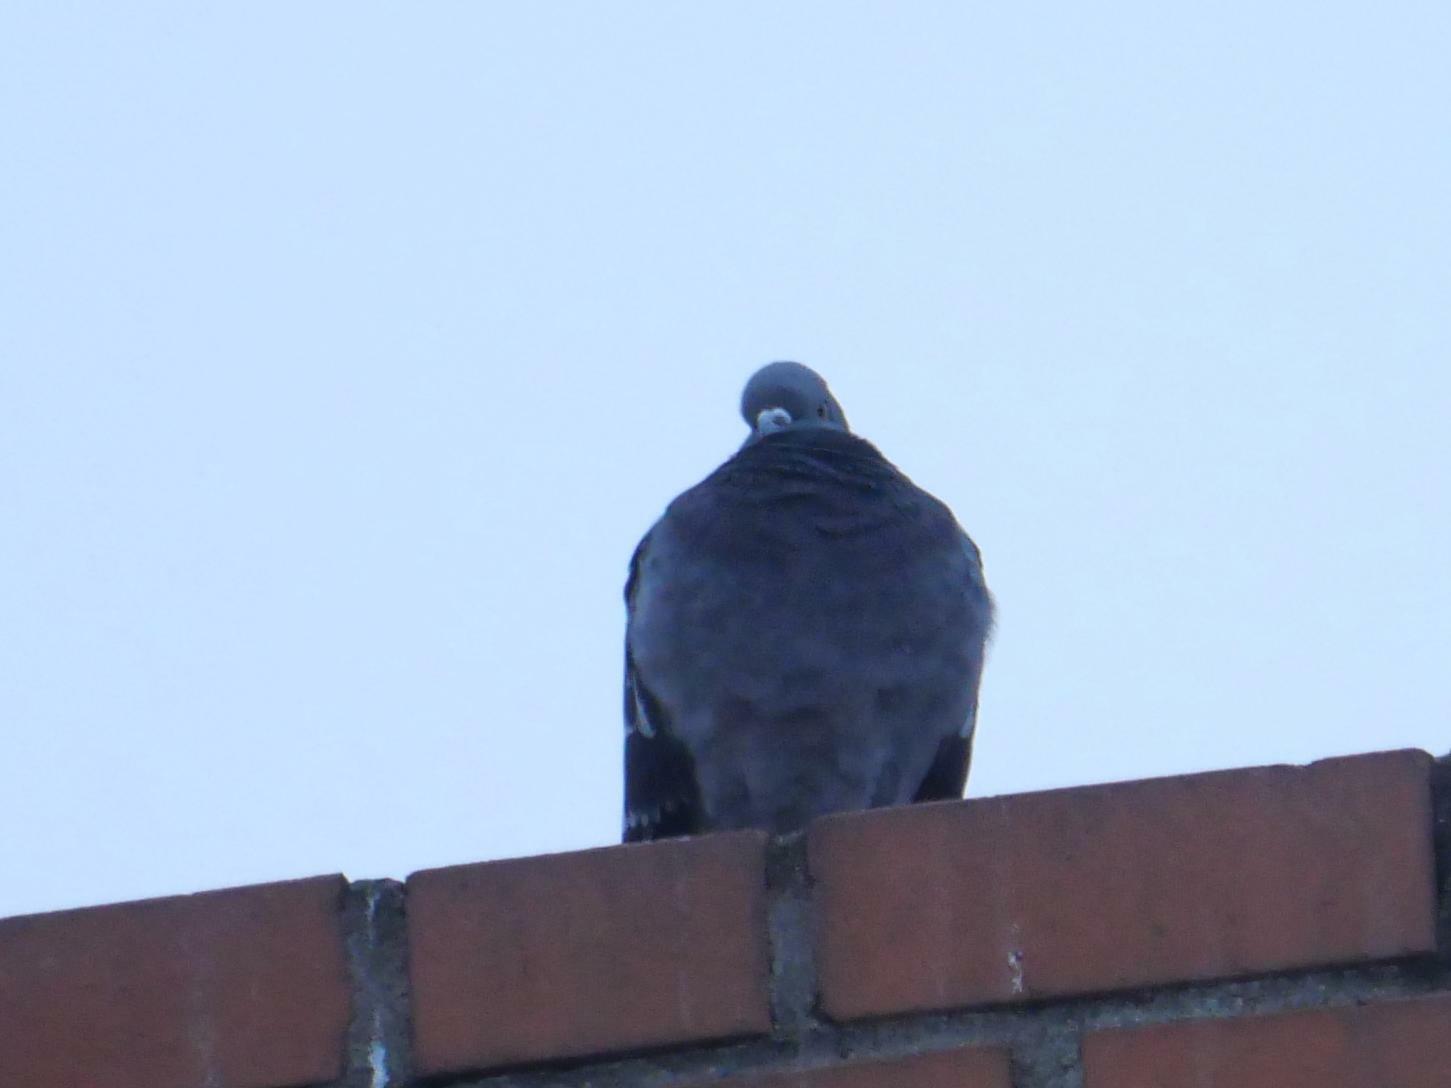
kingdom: Animalia
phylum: Chordata
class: Aves
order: Columbiformes
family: Columbidae
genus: Columba
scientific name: Columba livia
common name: Rock pigeon
